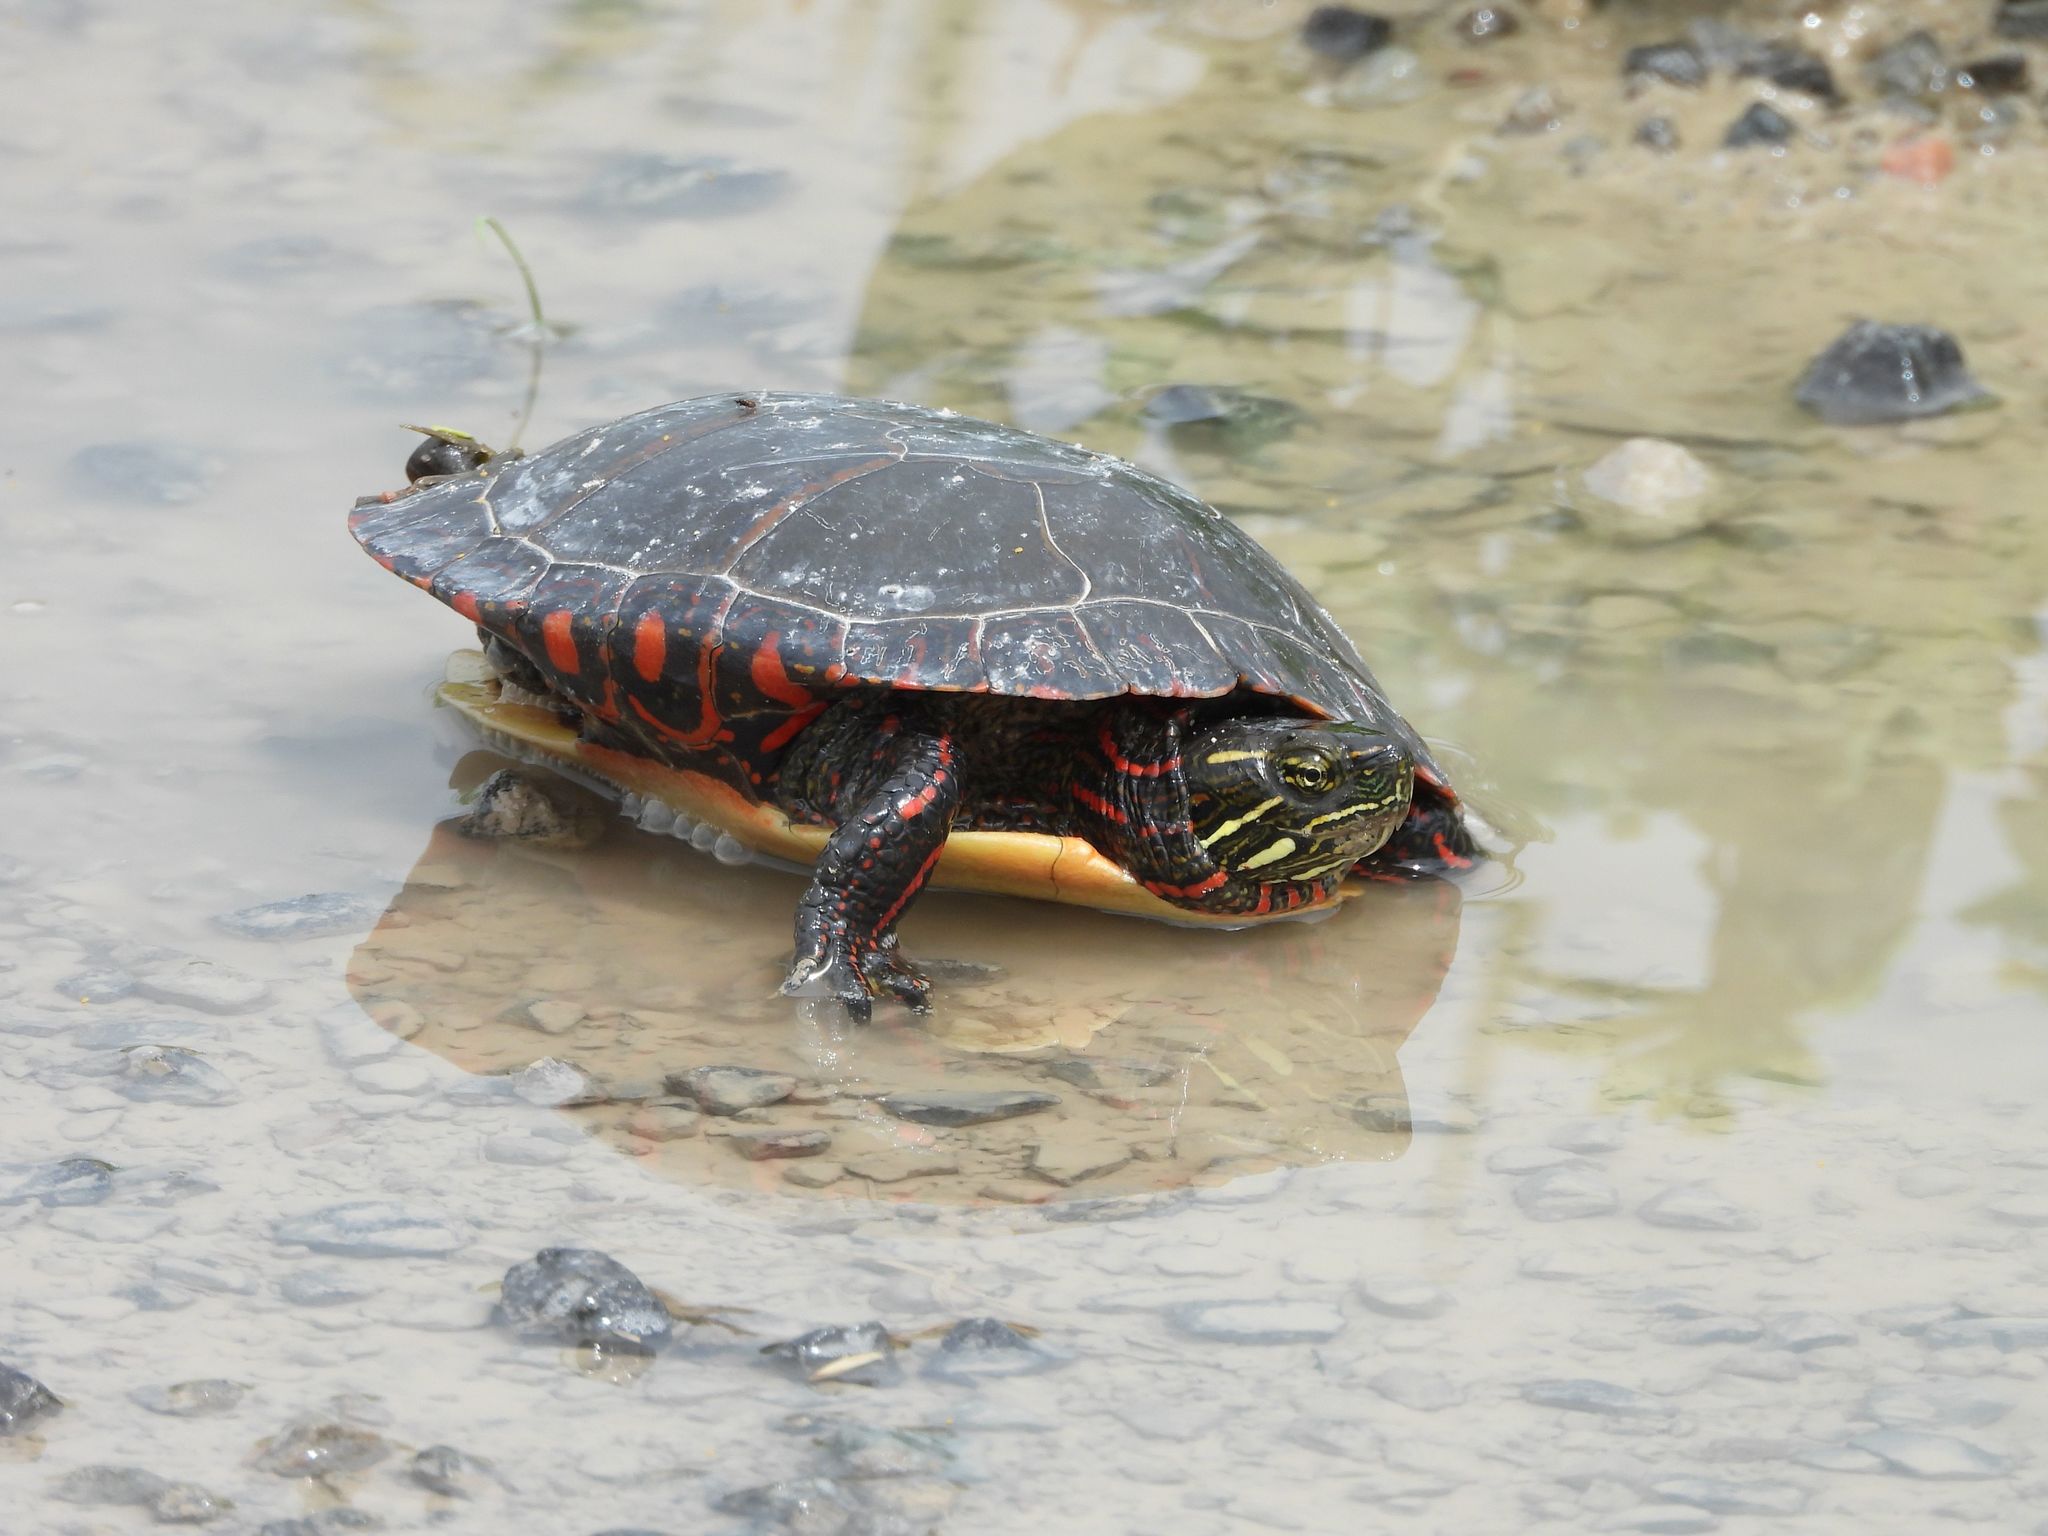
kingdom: Animalia
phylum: Chordata
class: Testudines
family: Emydidae
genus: Chrysemys
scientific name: Chrysemys picta
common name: Painted turtle
